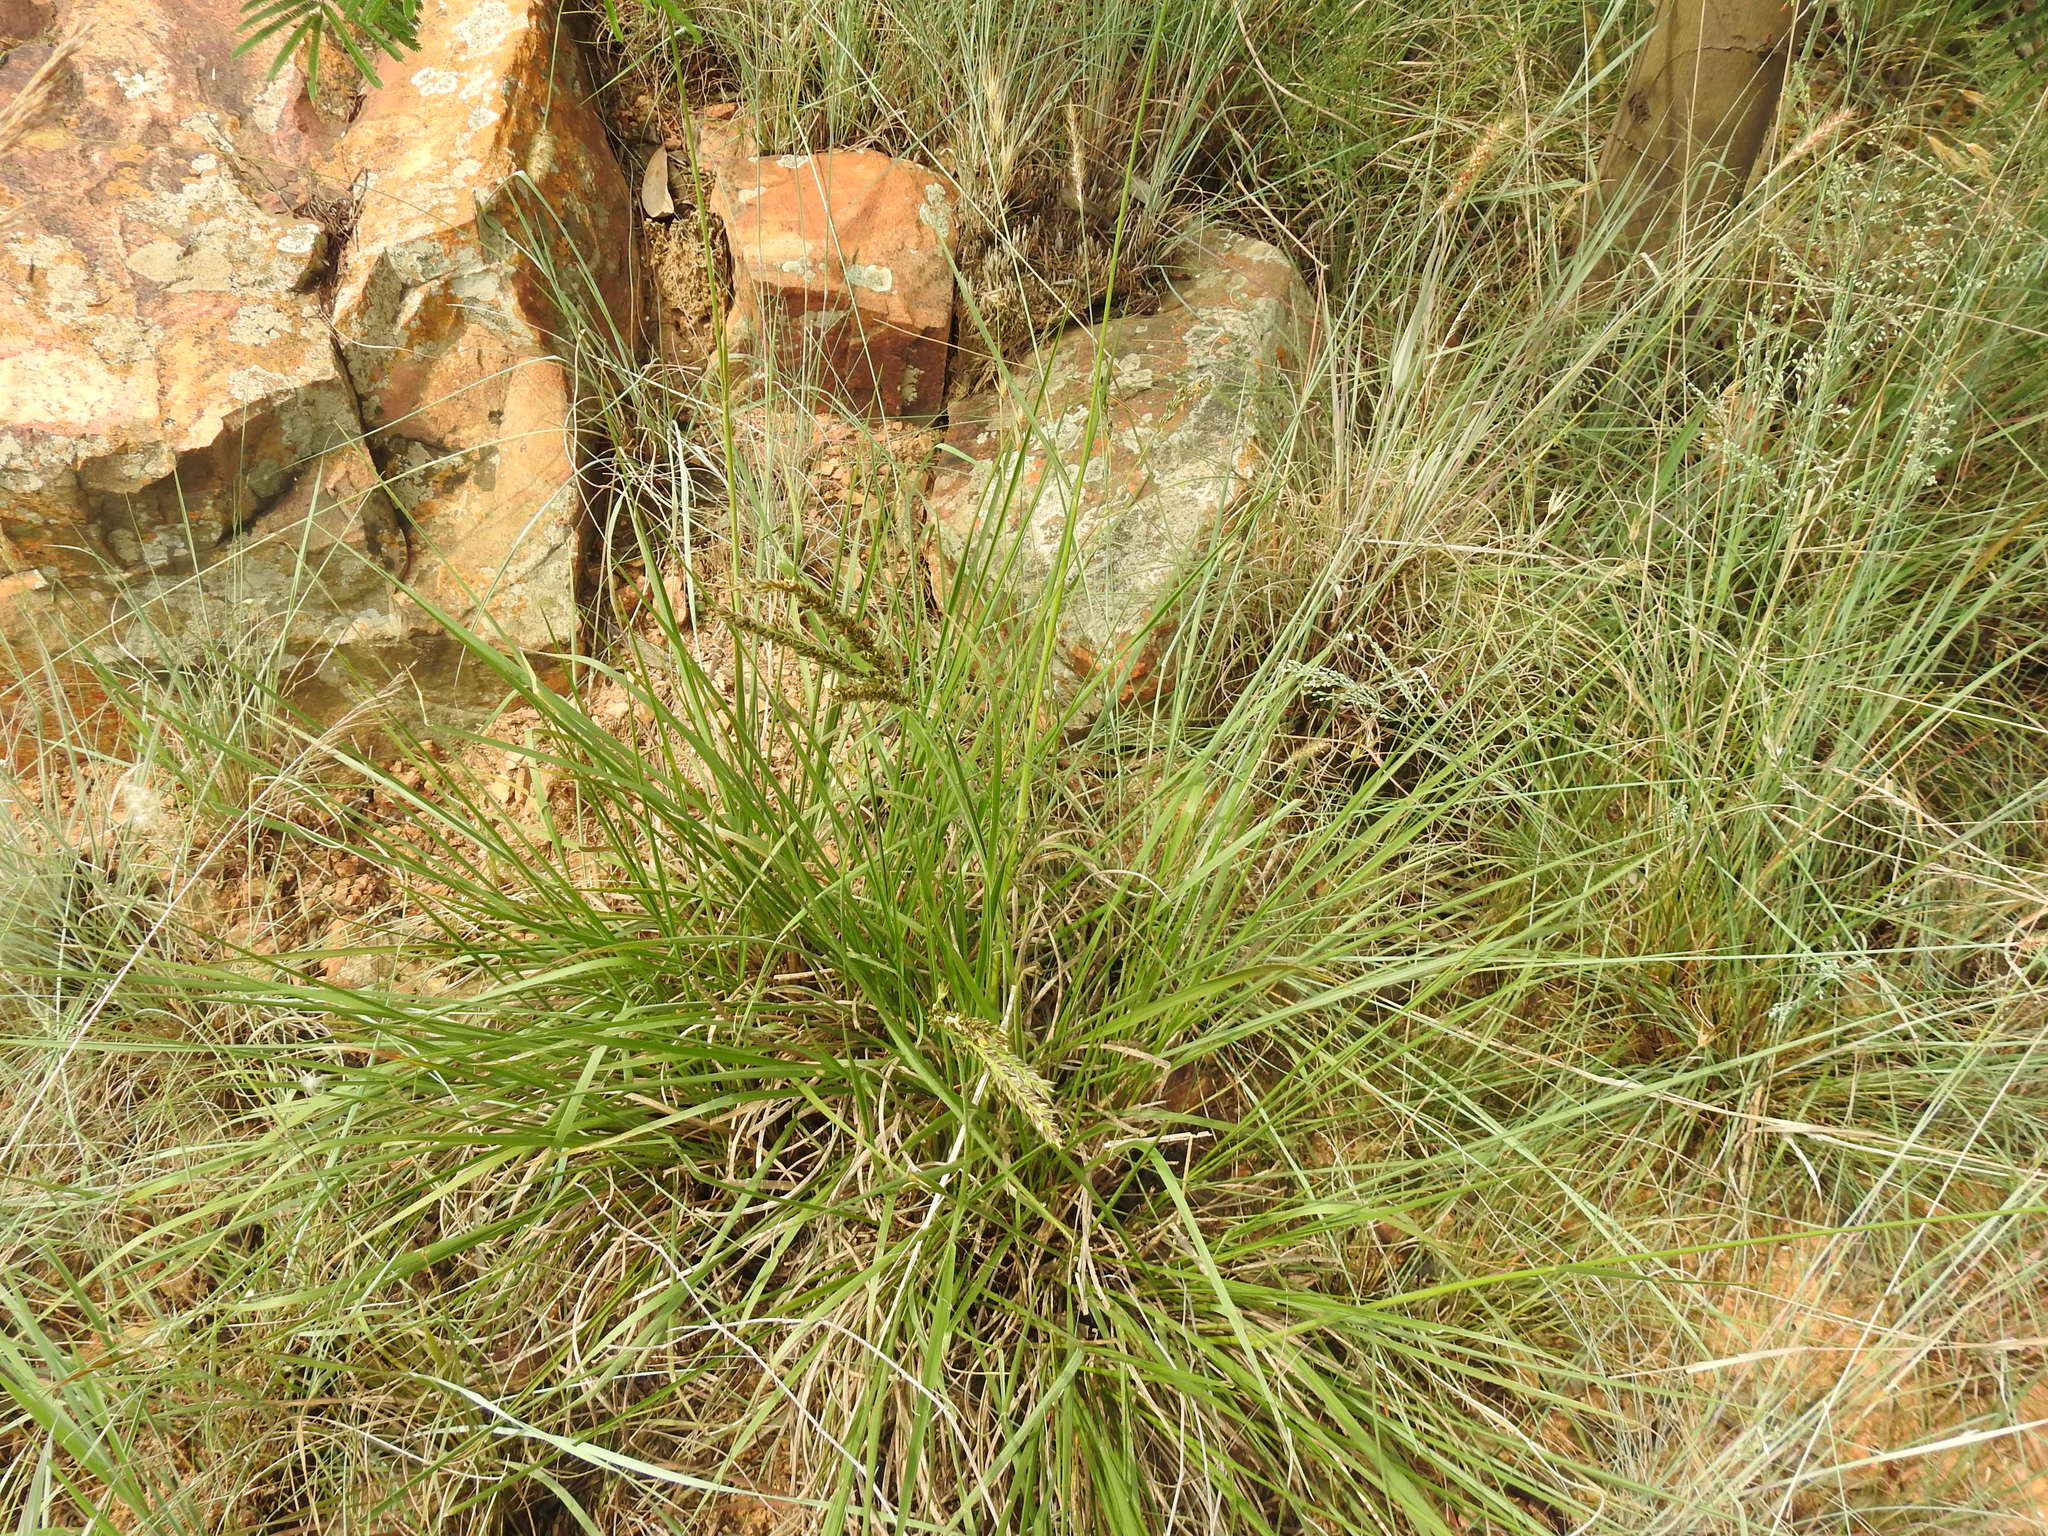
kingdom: Plantae
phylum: Tracheophyta
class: Liliopsida
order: Poales
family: Poaceae
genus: Alloteropsis
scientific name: Alloteropsis semialata
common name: Cockatoo grass
